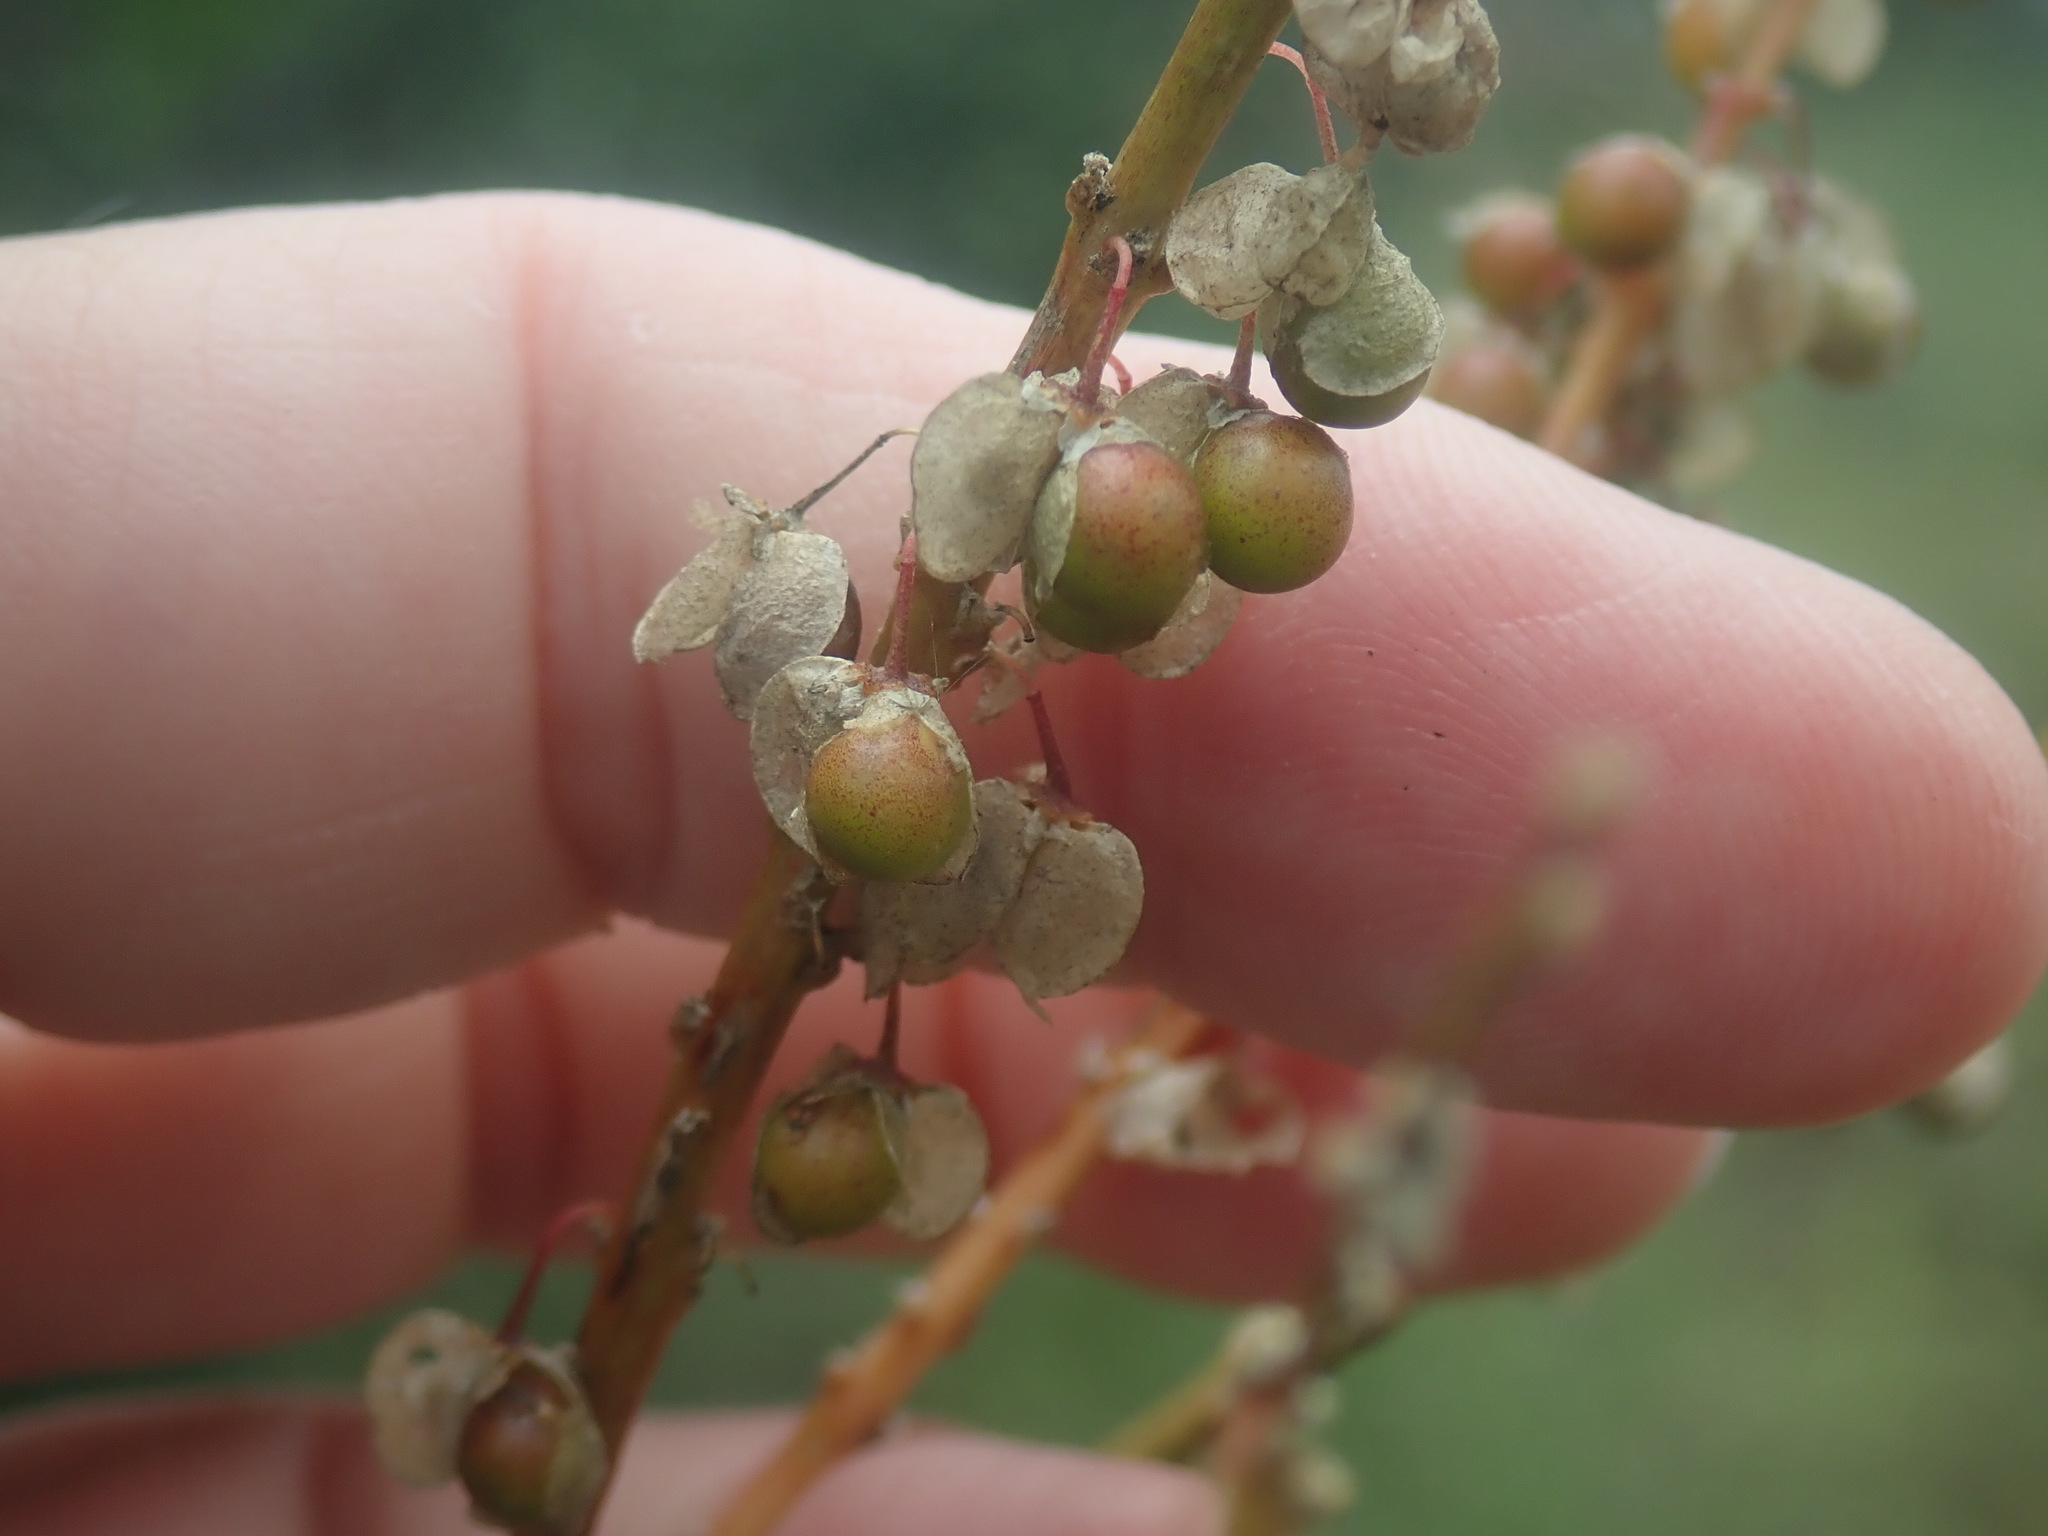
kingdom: Plantae
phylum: Tracheophyta
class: Liliopsida
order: Asparagales
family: Asparagaceae
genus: Nolina
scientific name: Nolina microcarpa
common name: Bear-grass
